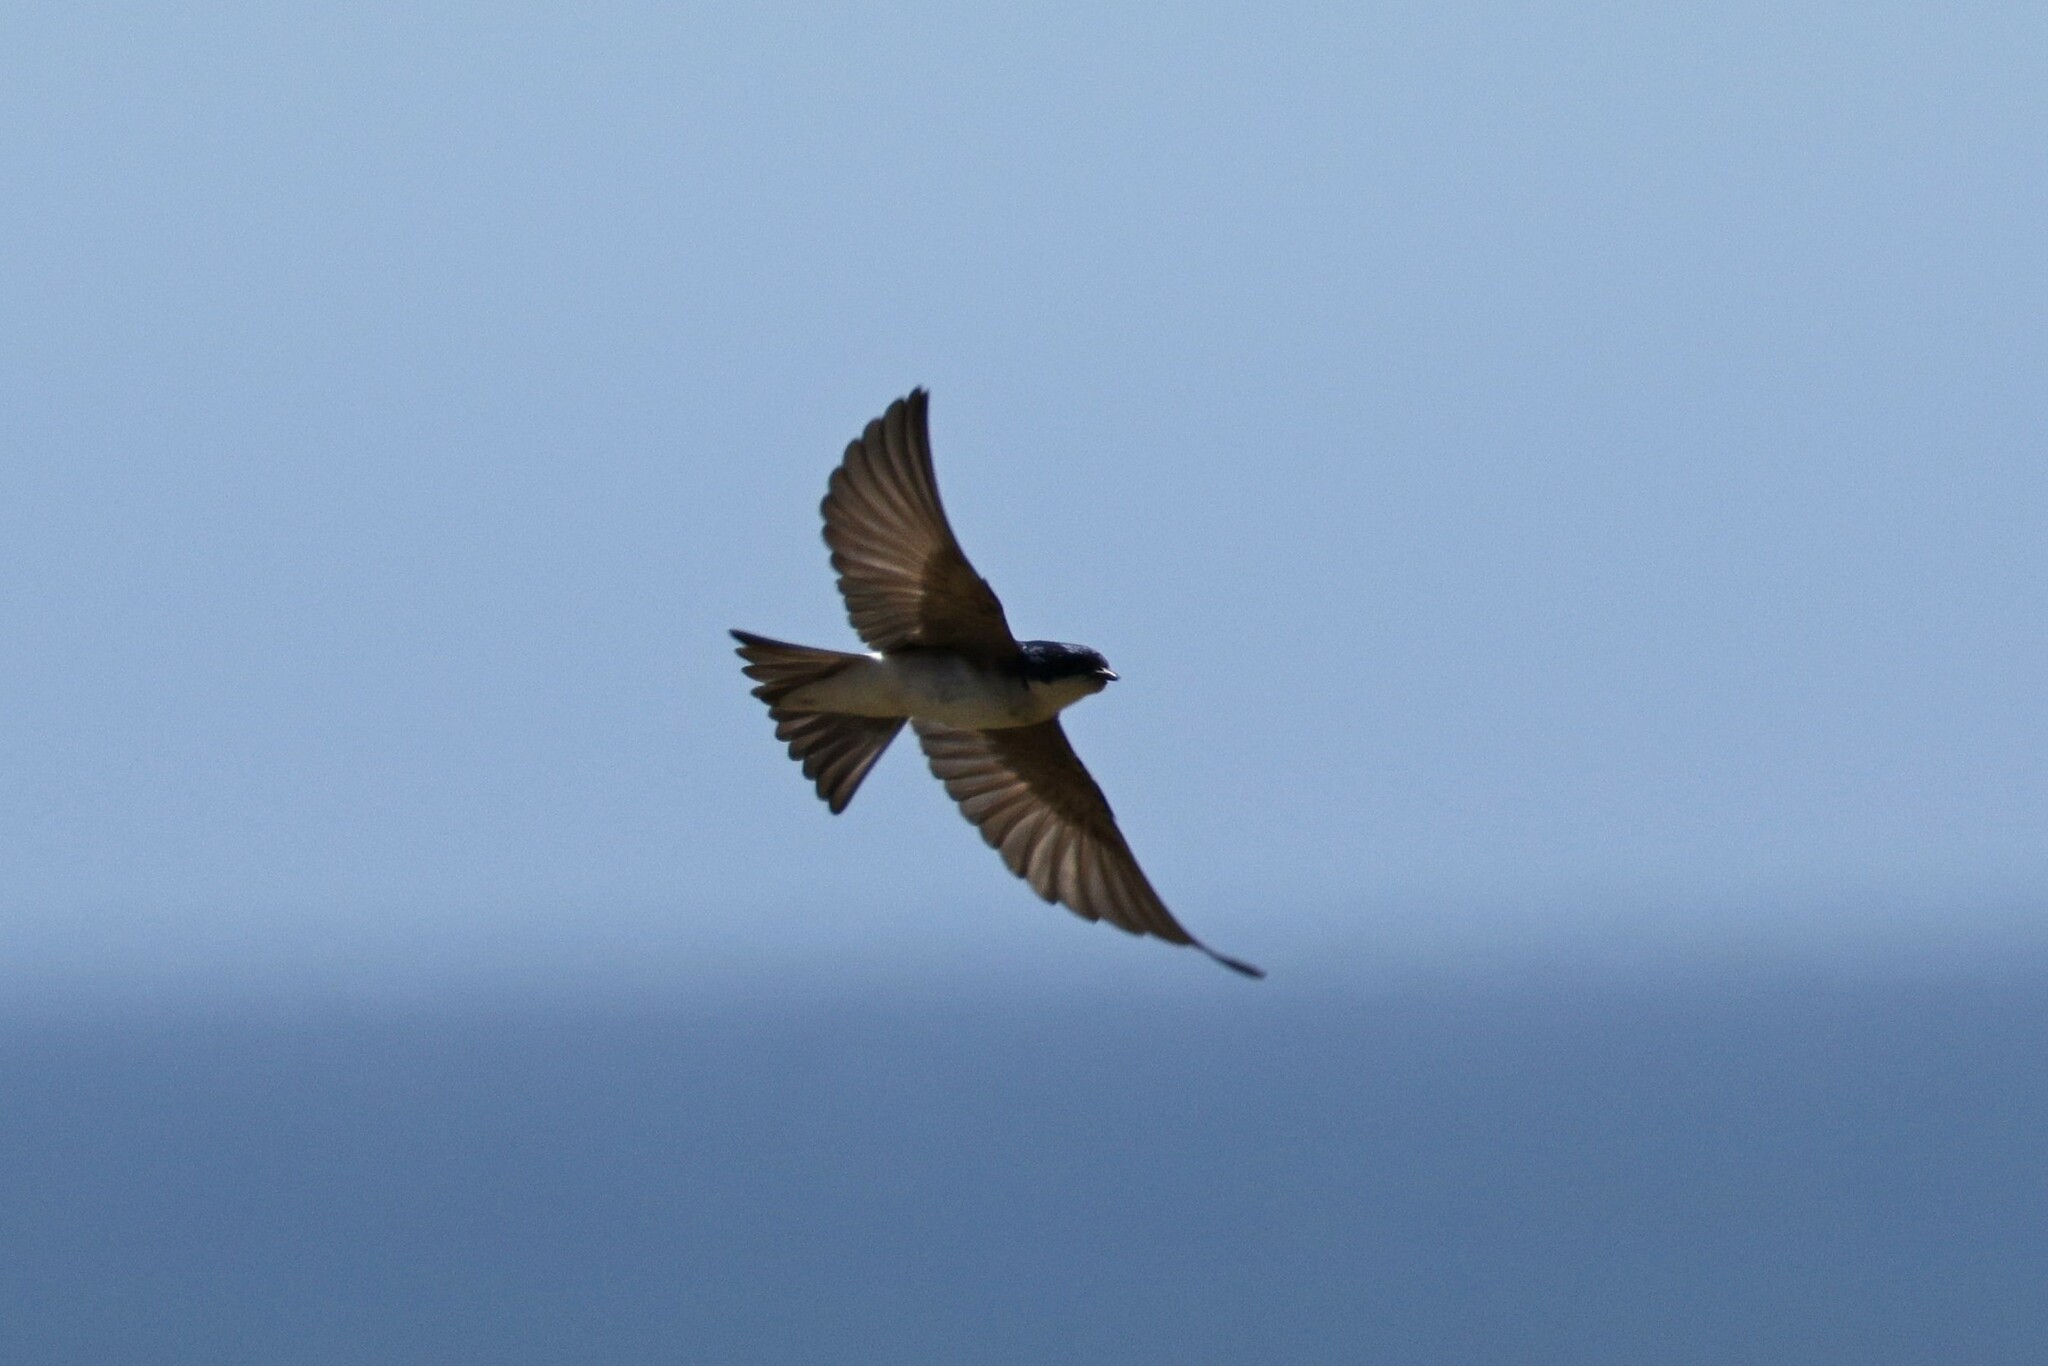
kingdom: Animalia
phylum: Chordata
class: Aves
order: Passeriformes
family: Hirundinidae
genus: Tachycineta
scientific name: Tachycineta leucopyga
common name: Chilean swallow
